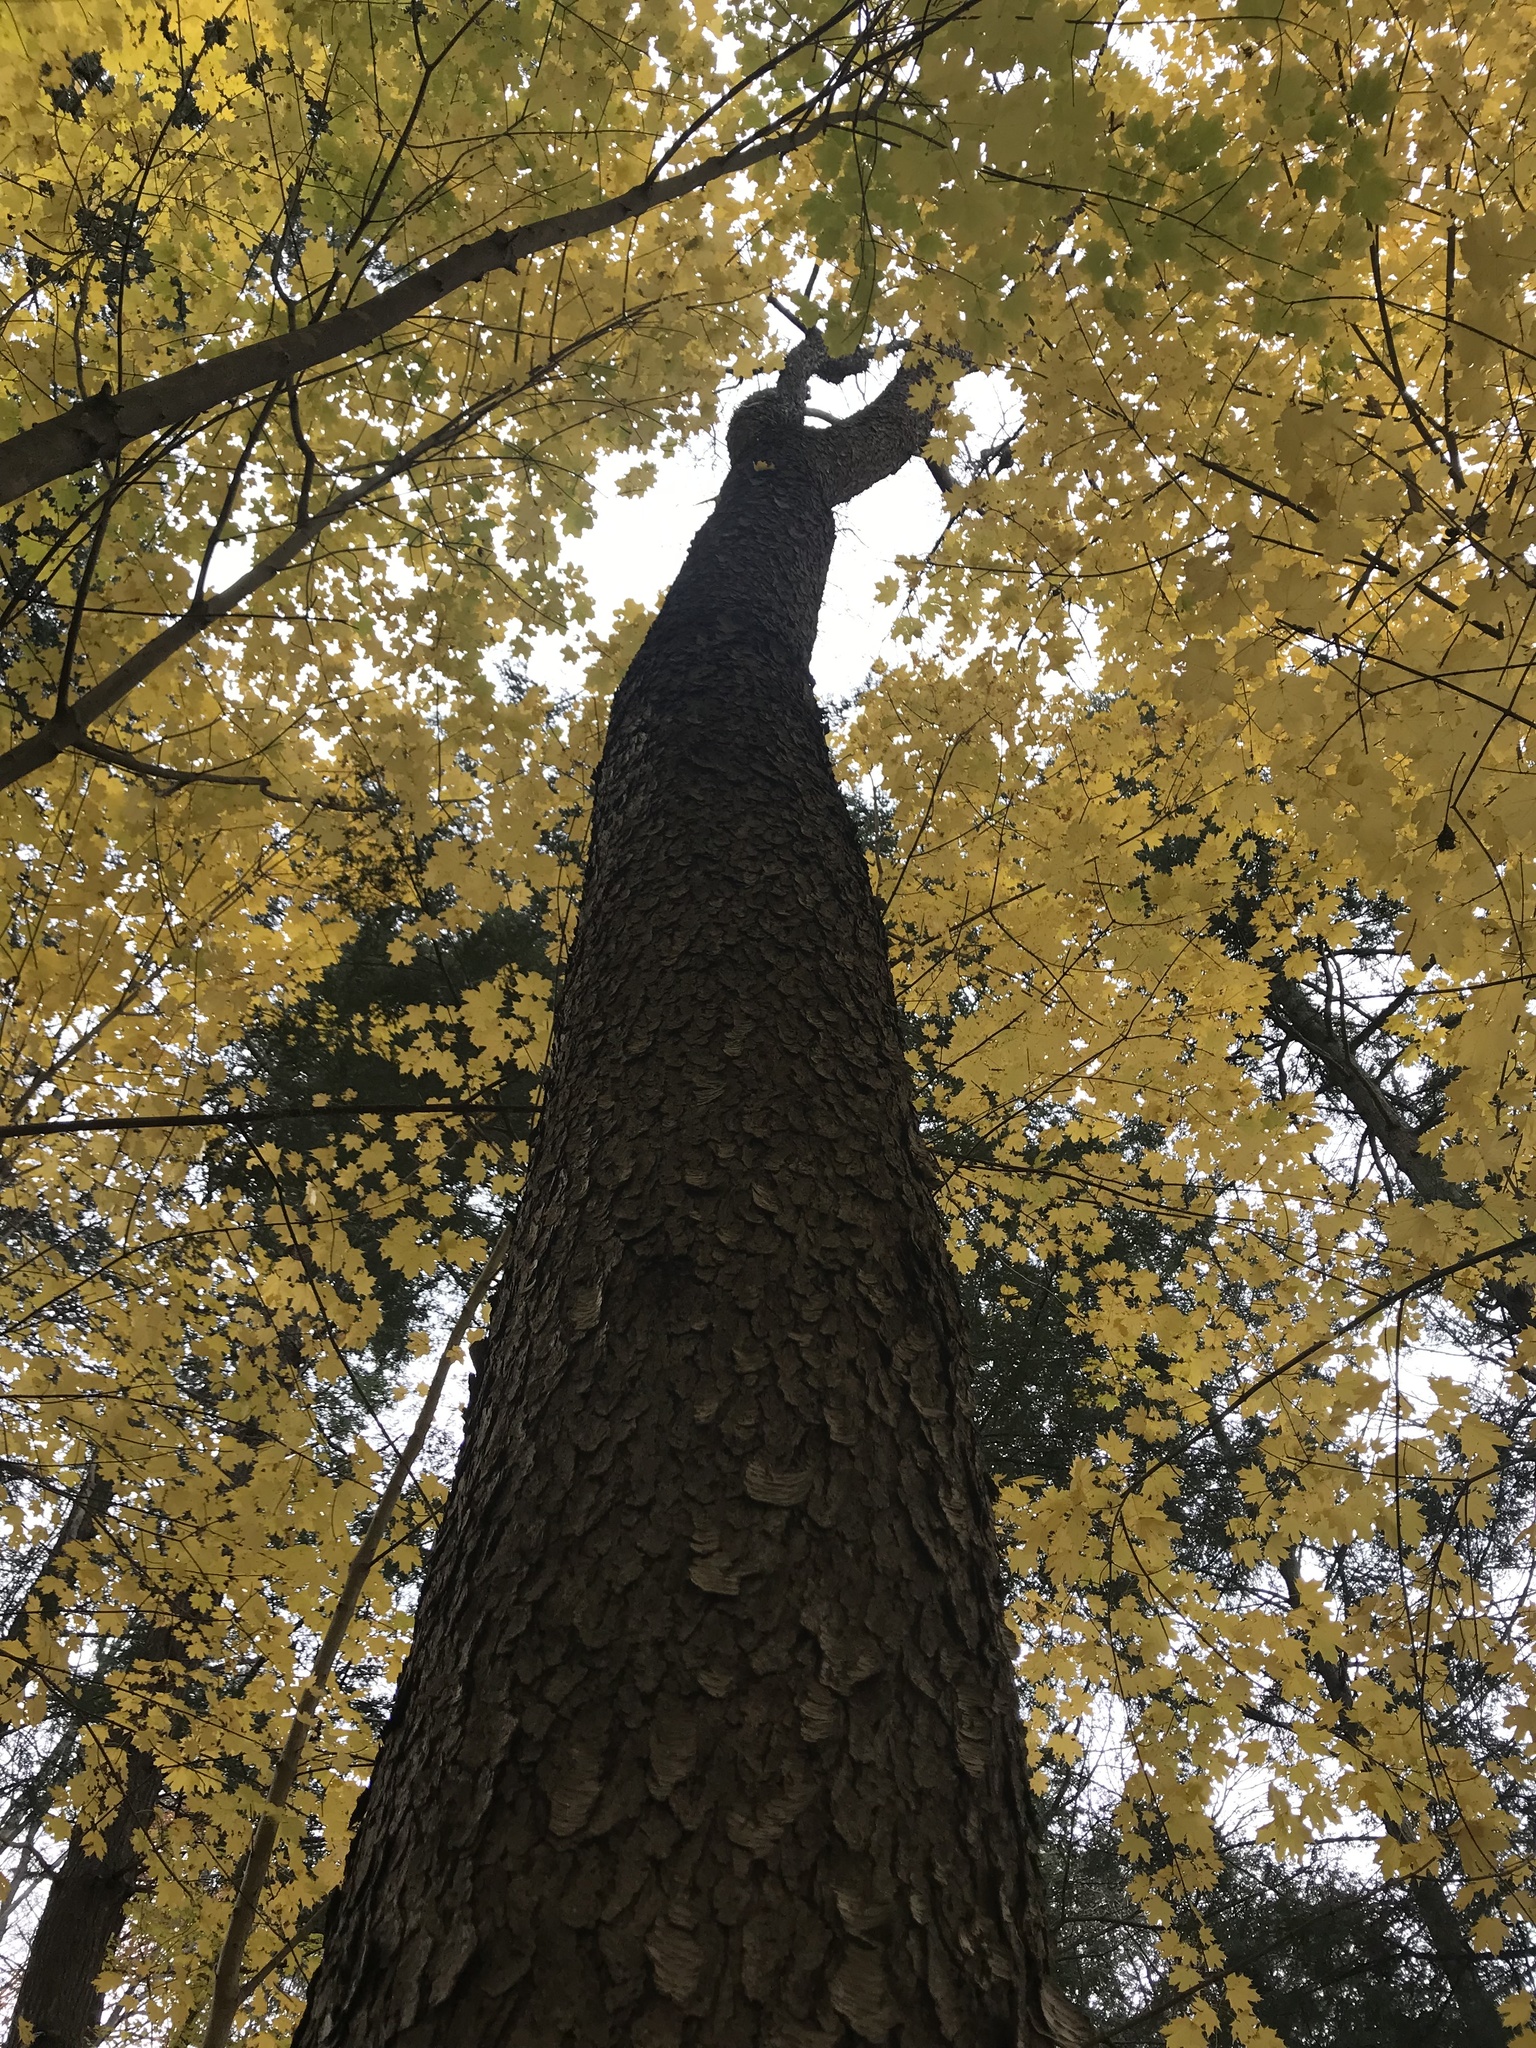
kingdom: Plantae
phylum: Tracheophyta
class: Magnoliopsida
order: Rosales
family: Rosaceae
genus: Prunus
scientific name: Prunus serotina
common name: Black cherry
